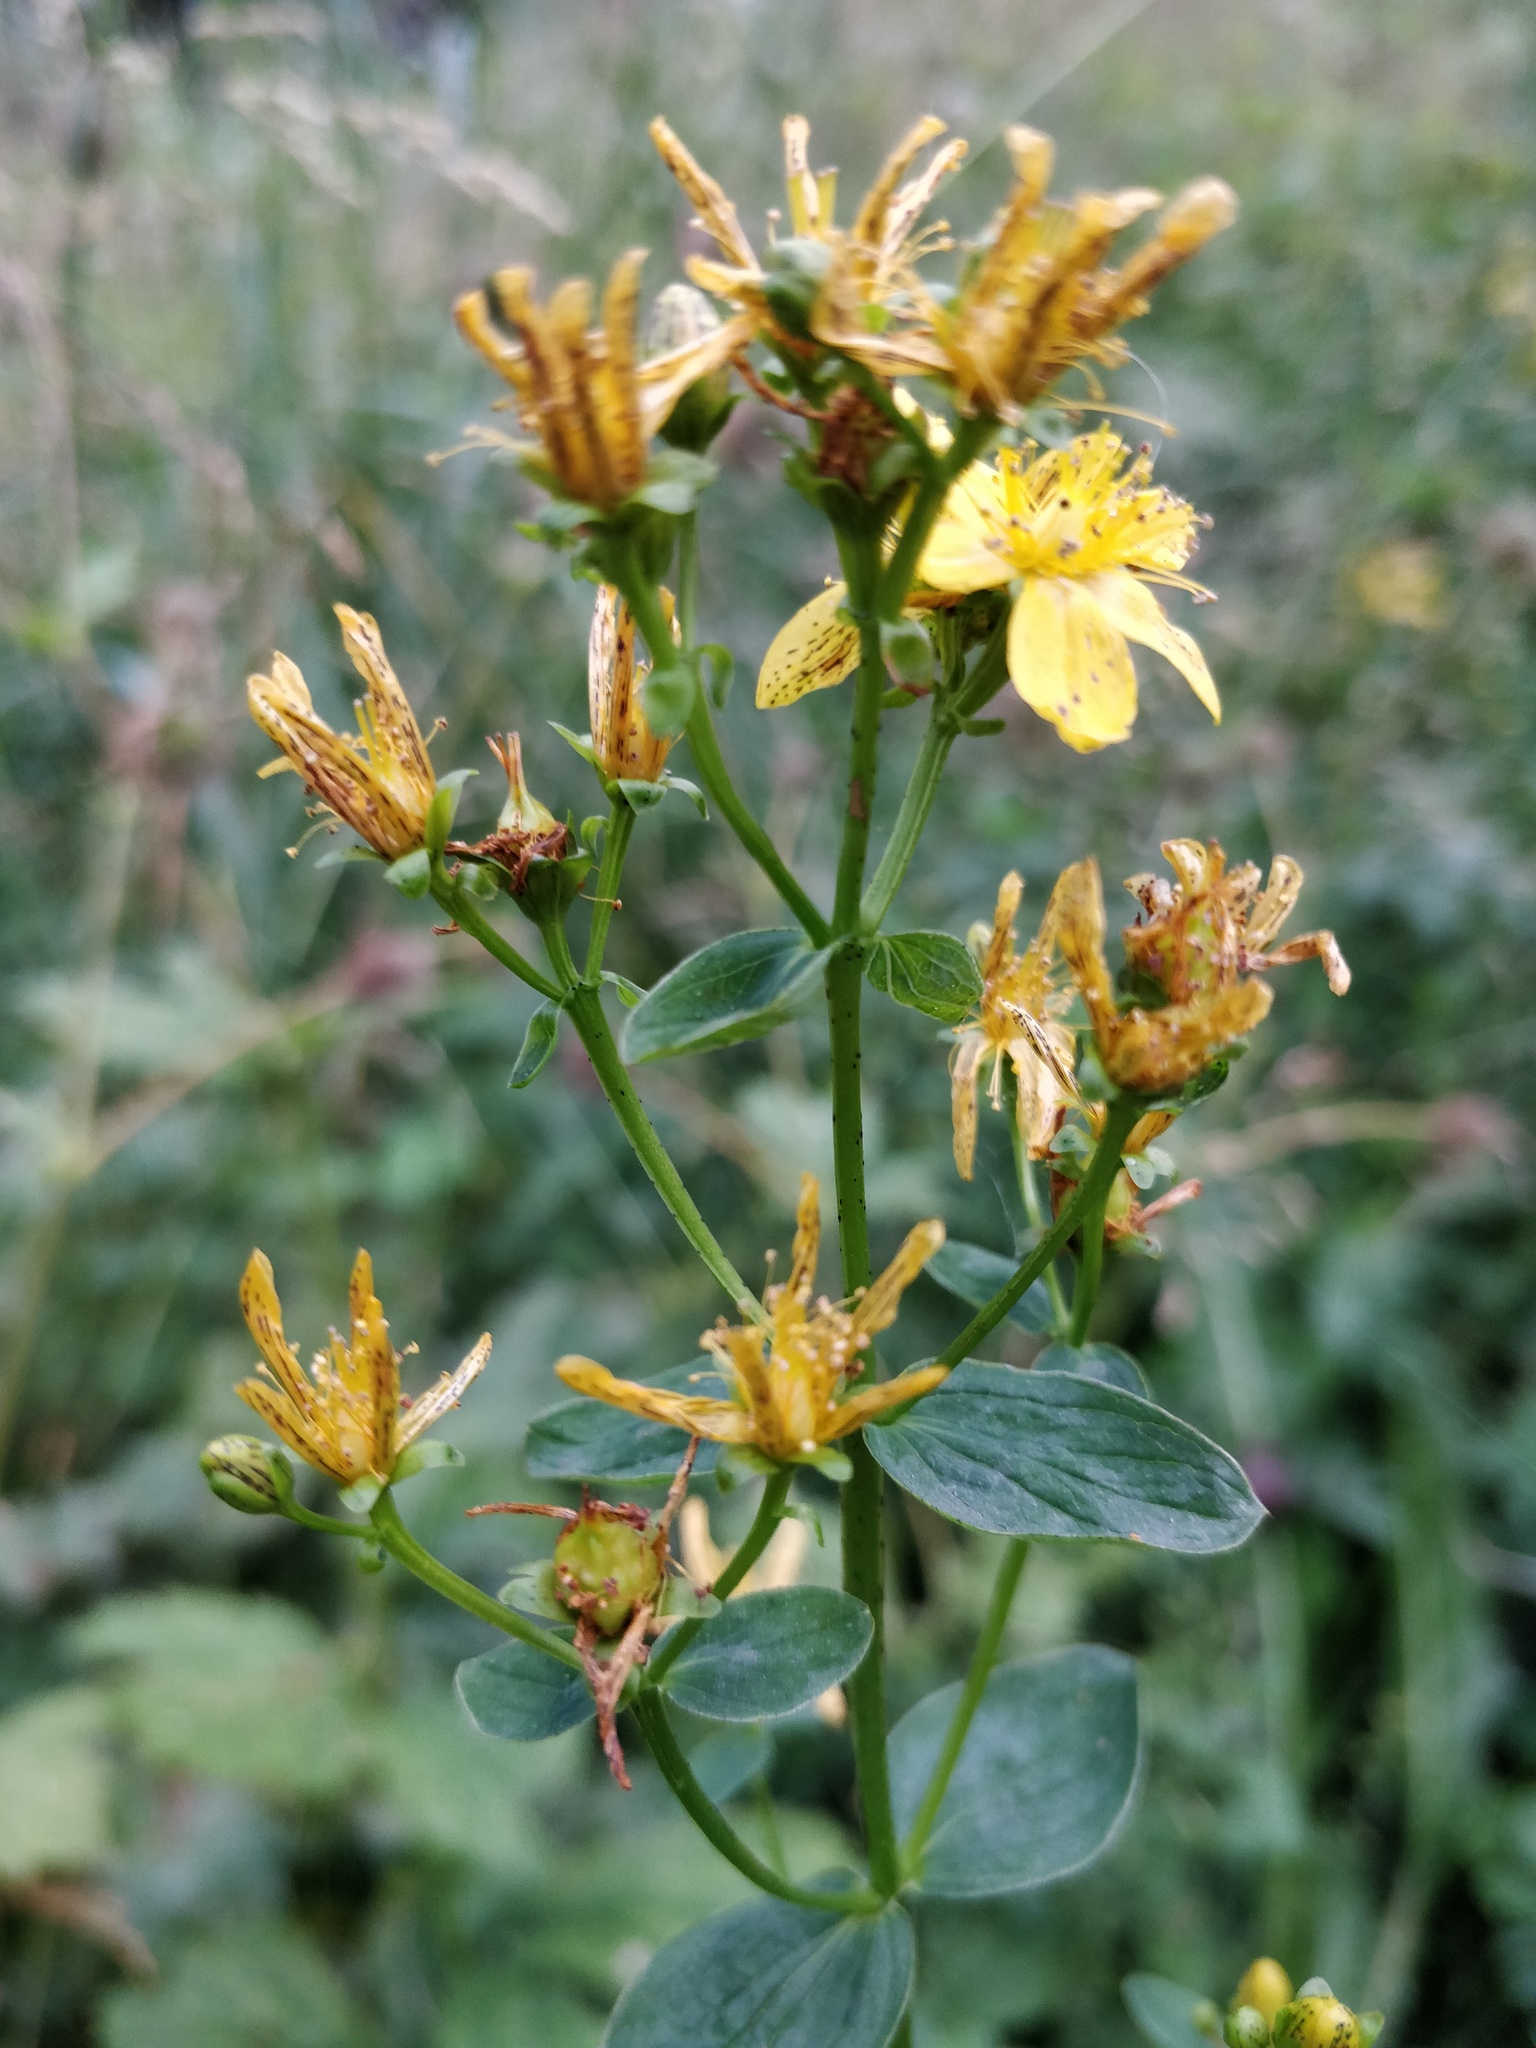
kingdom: Plantae
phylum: Tracheophyta
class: Magnoliopsida
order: Malpighiales
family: Hypericaceae
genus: Hypericum
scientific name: Hypericum maculatum
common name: Imperforate st. john's-wort
